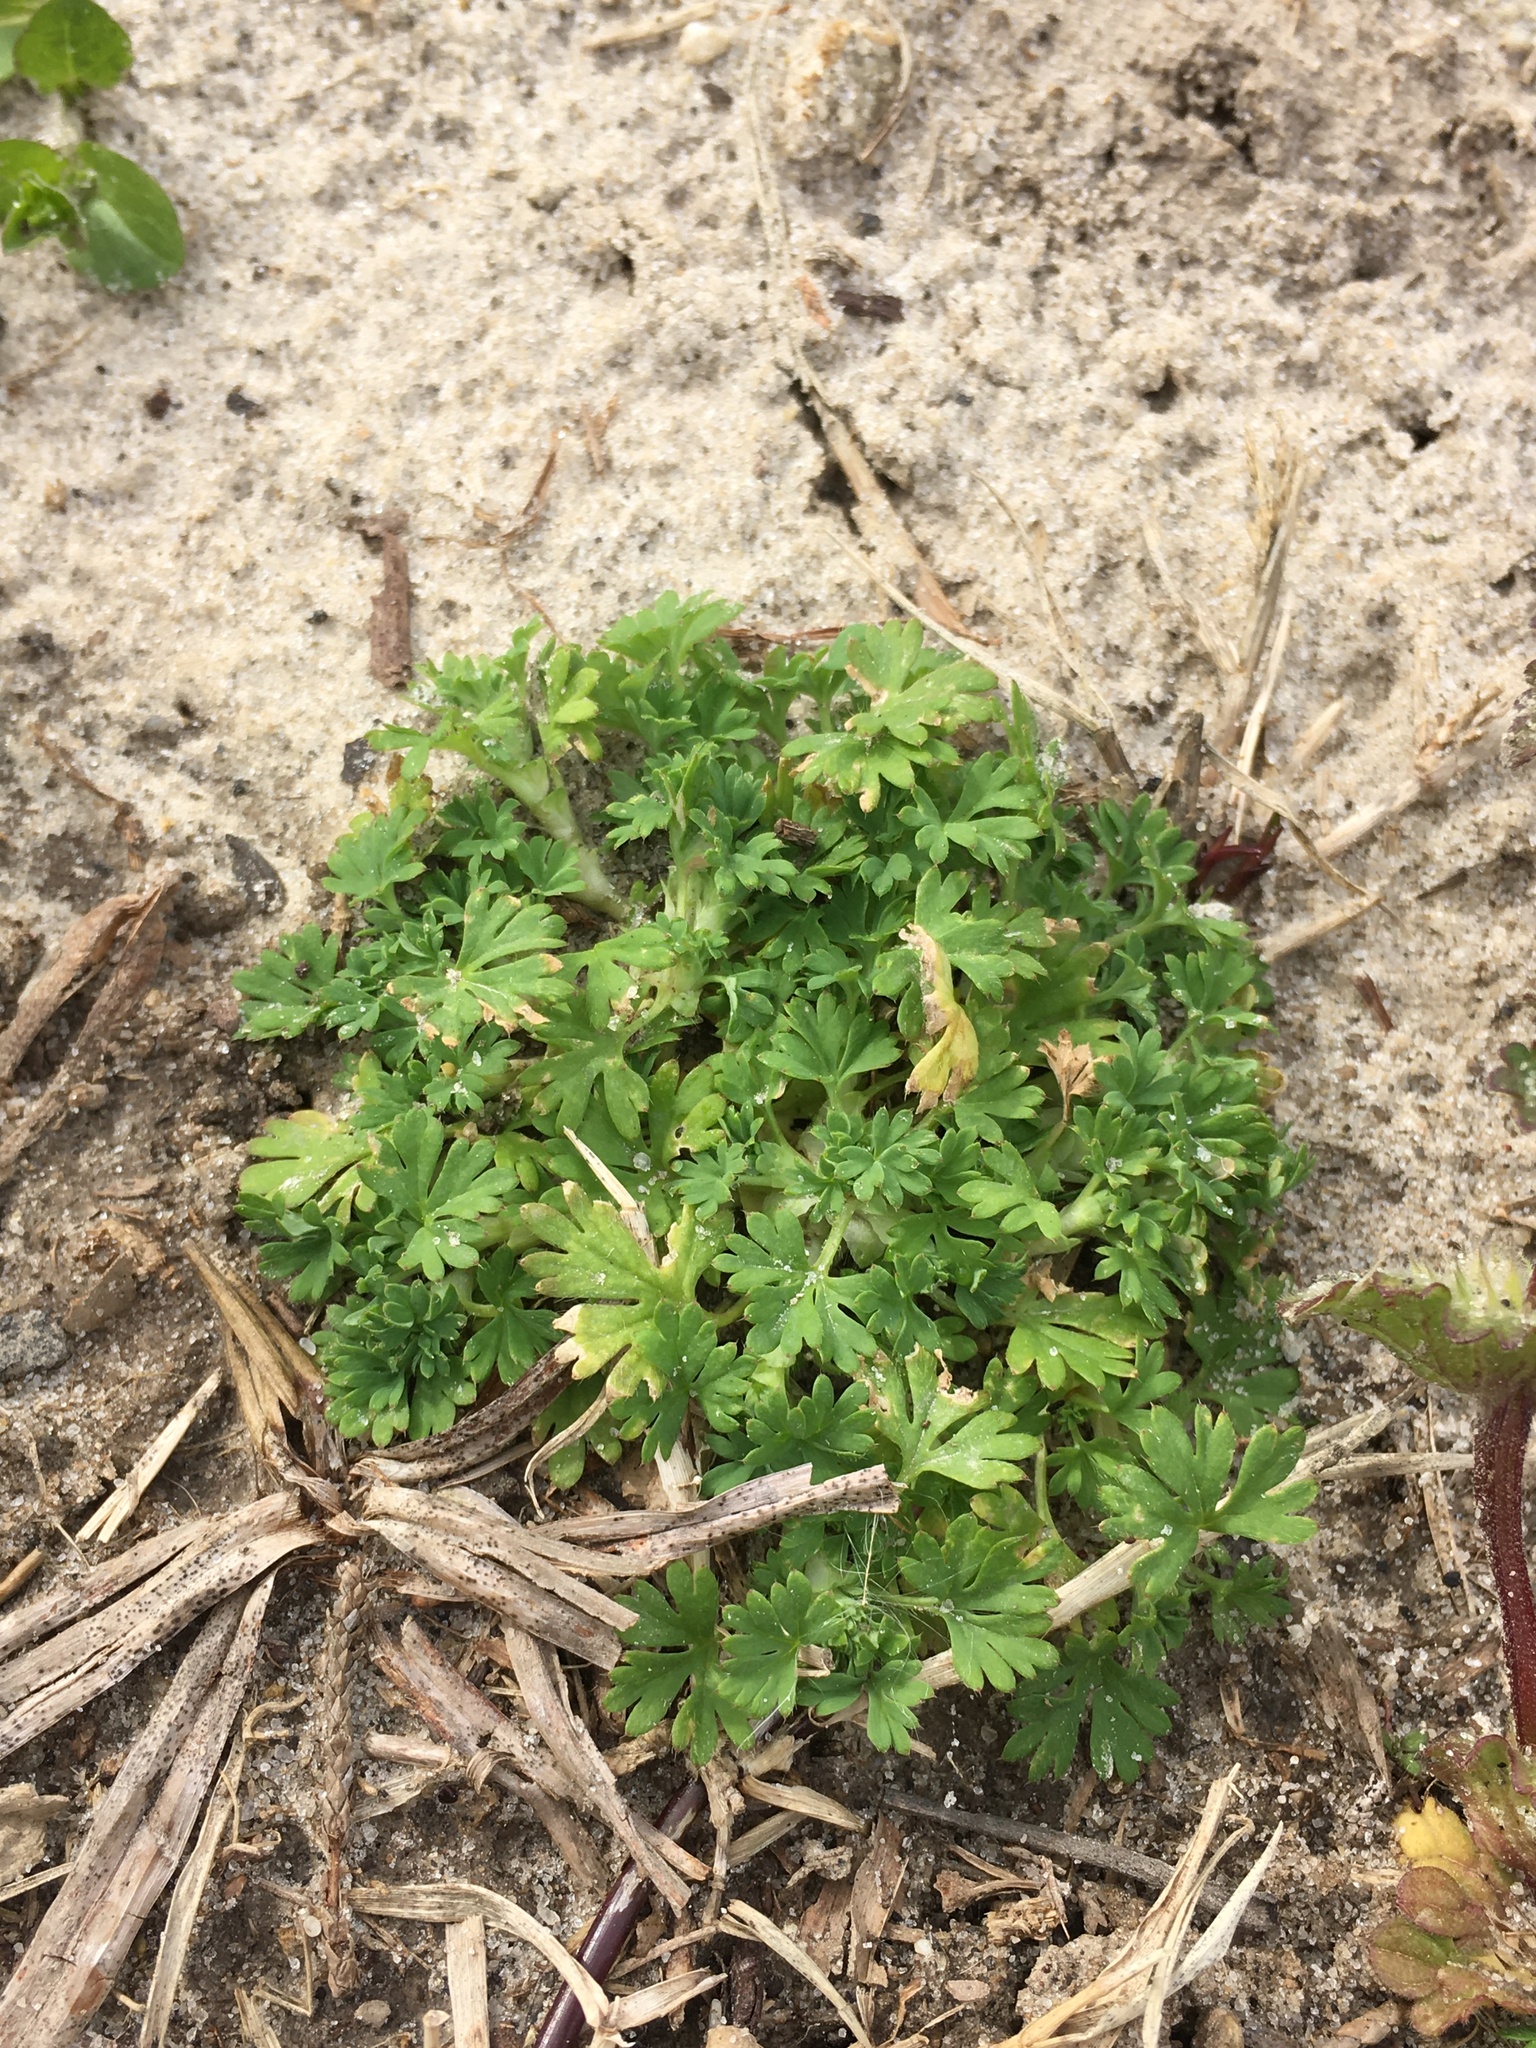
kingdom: Plantae
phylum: Tracheophyta
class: Magnoliopsida
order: Rosales
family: Rosaceae
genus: Aphanes
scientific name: Aphanes australis
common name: Slender parsley-piert
